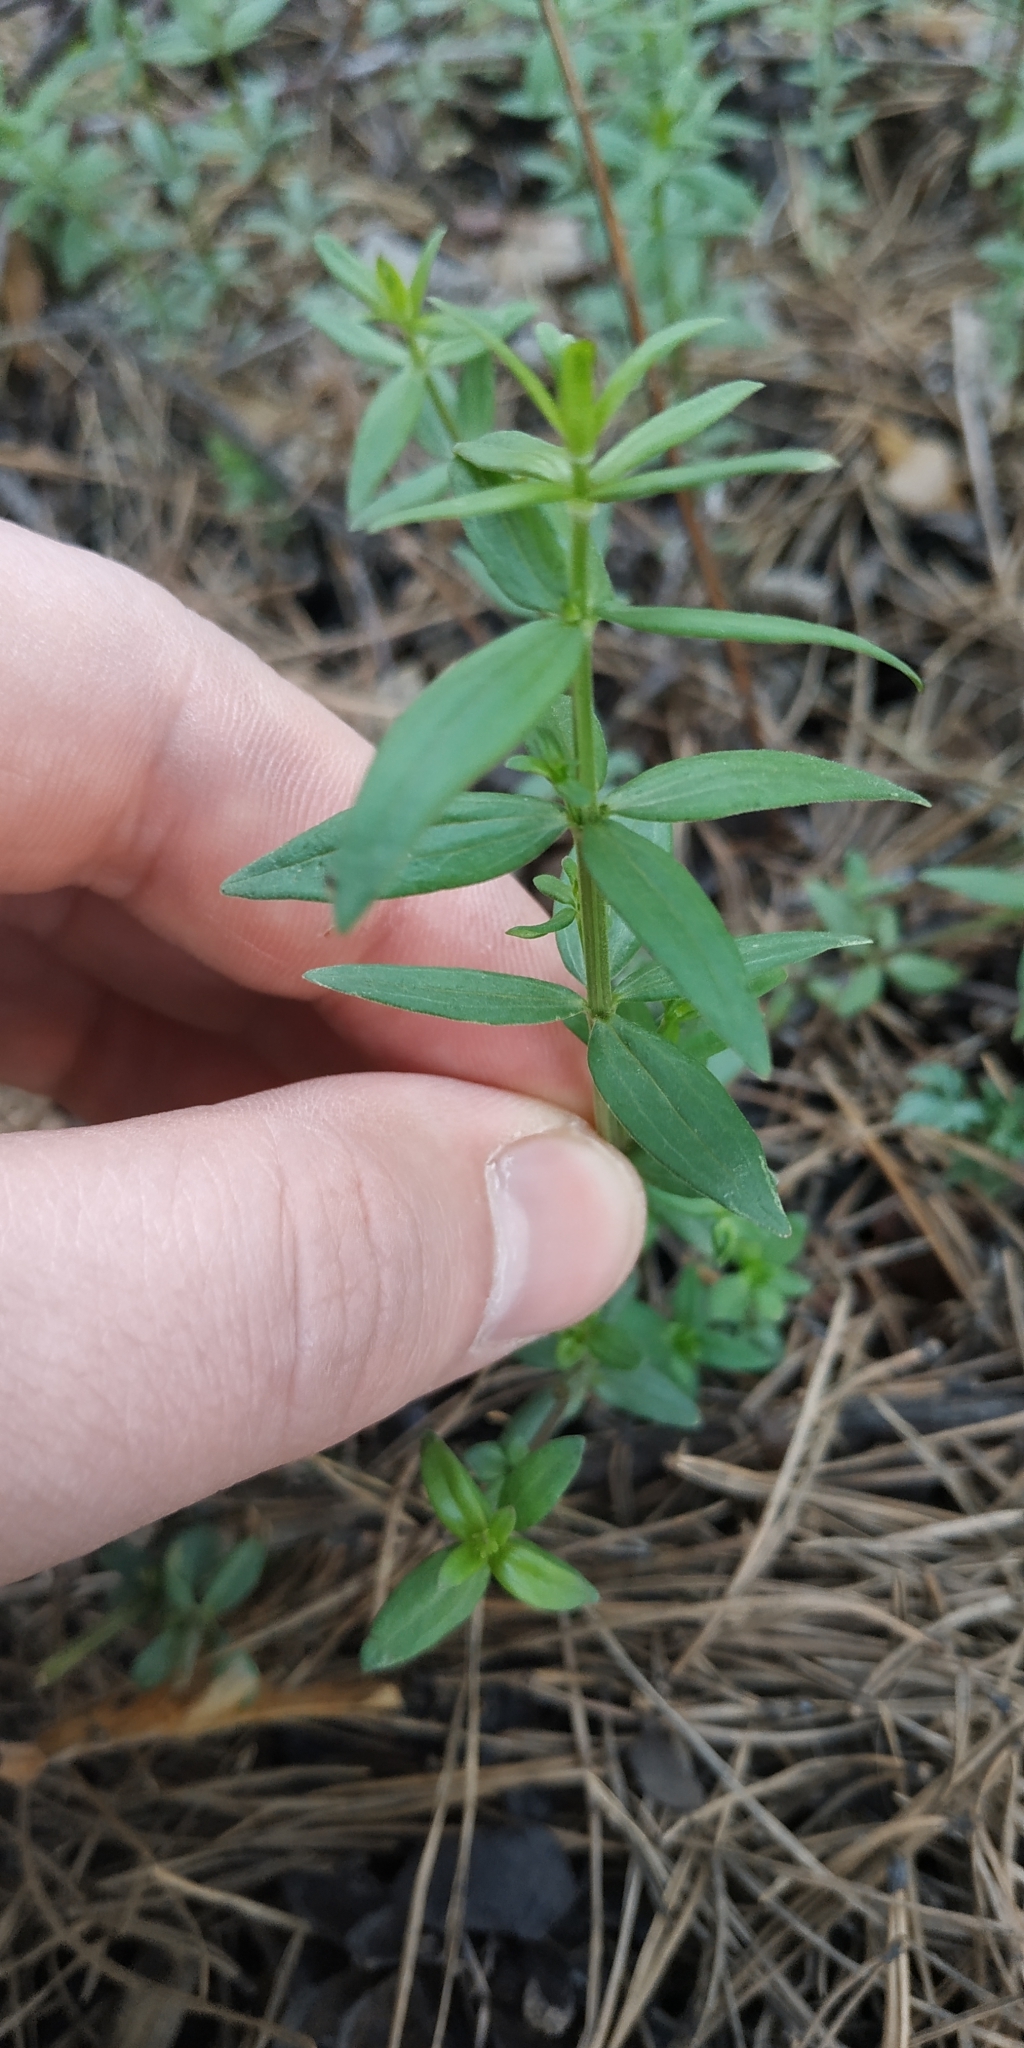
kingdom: Plantae
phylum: Tracheophyta
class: Magnoliopsida
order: Gentianales
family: Rubiaceae
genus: Galium
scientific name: Galium boreale
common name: Northern bedstraw
